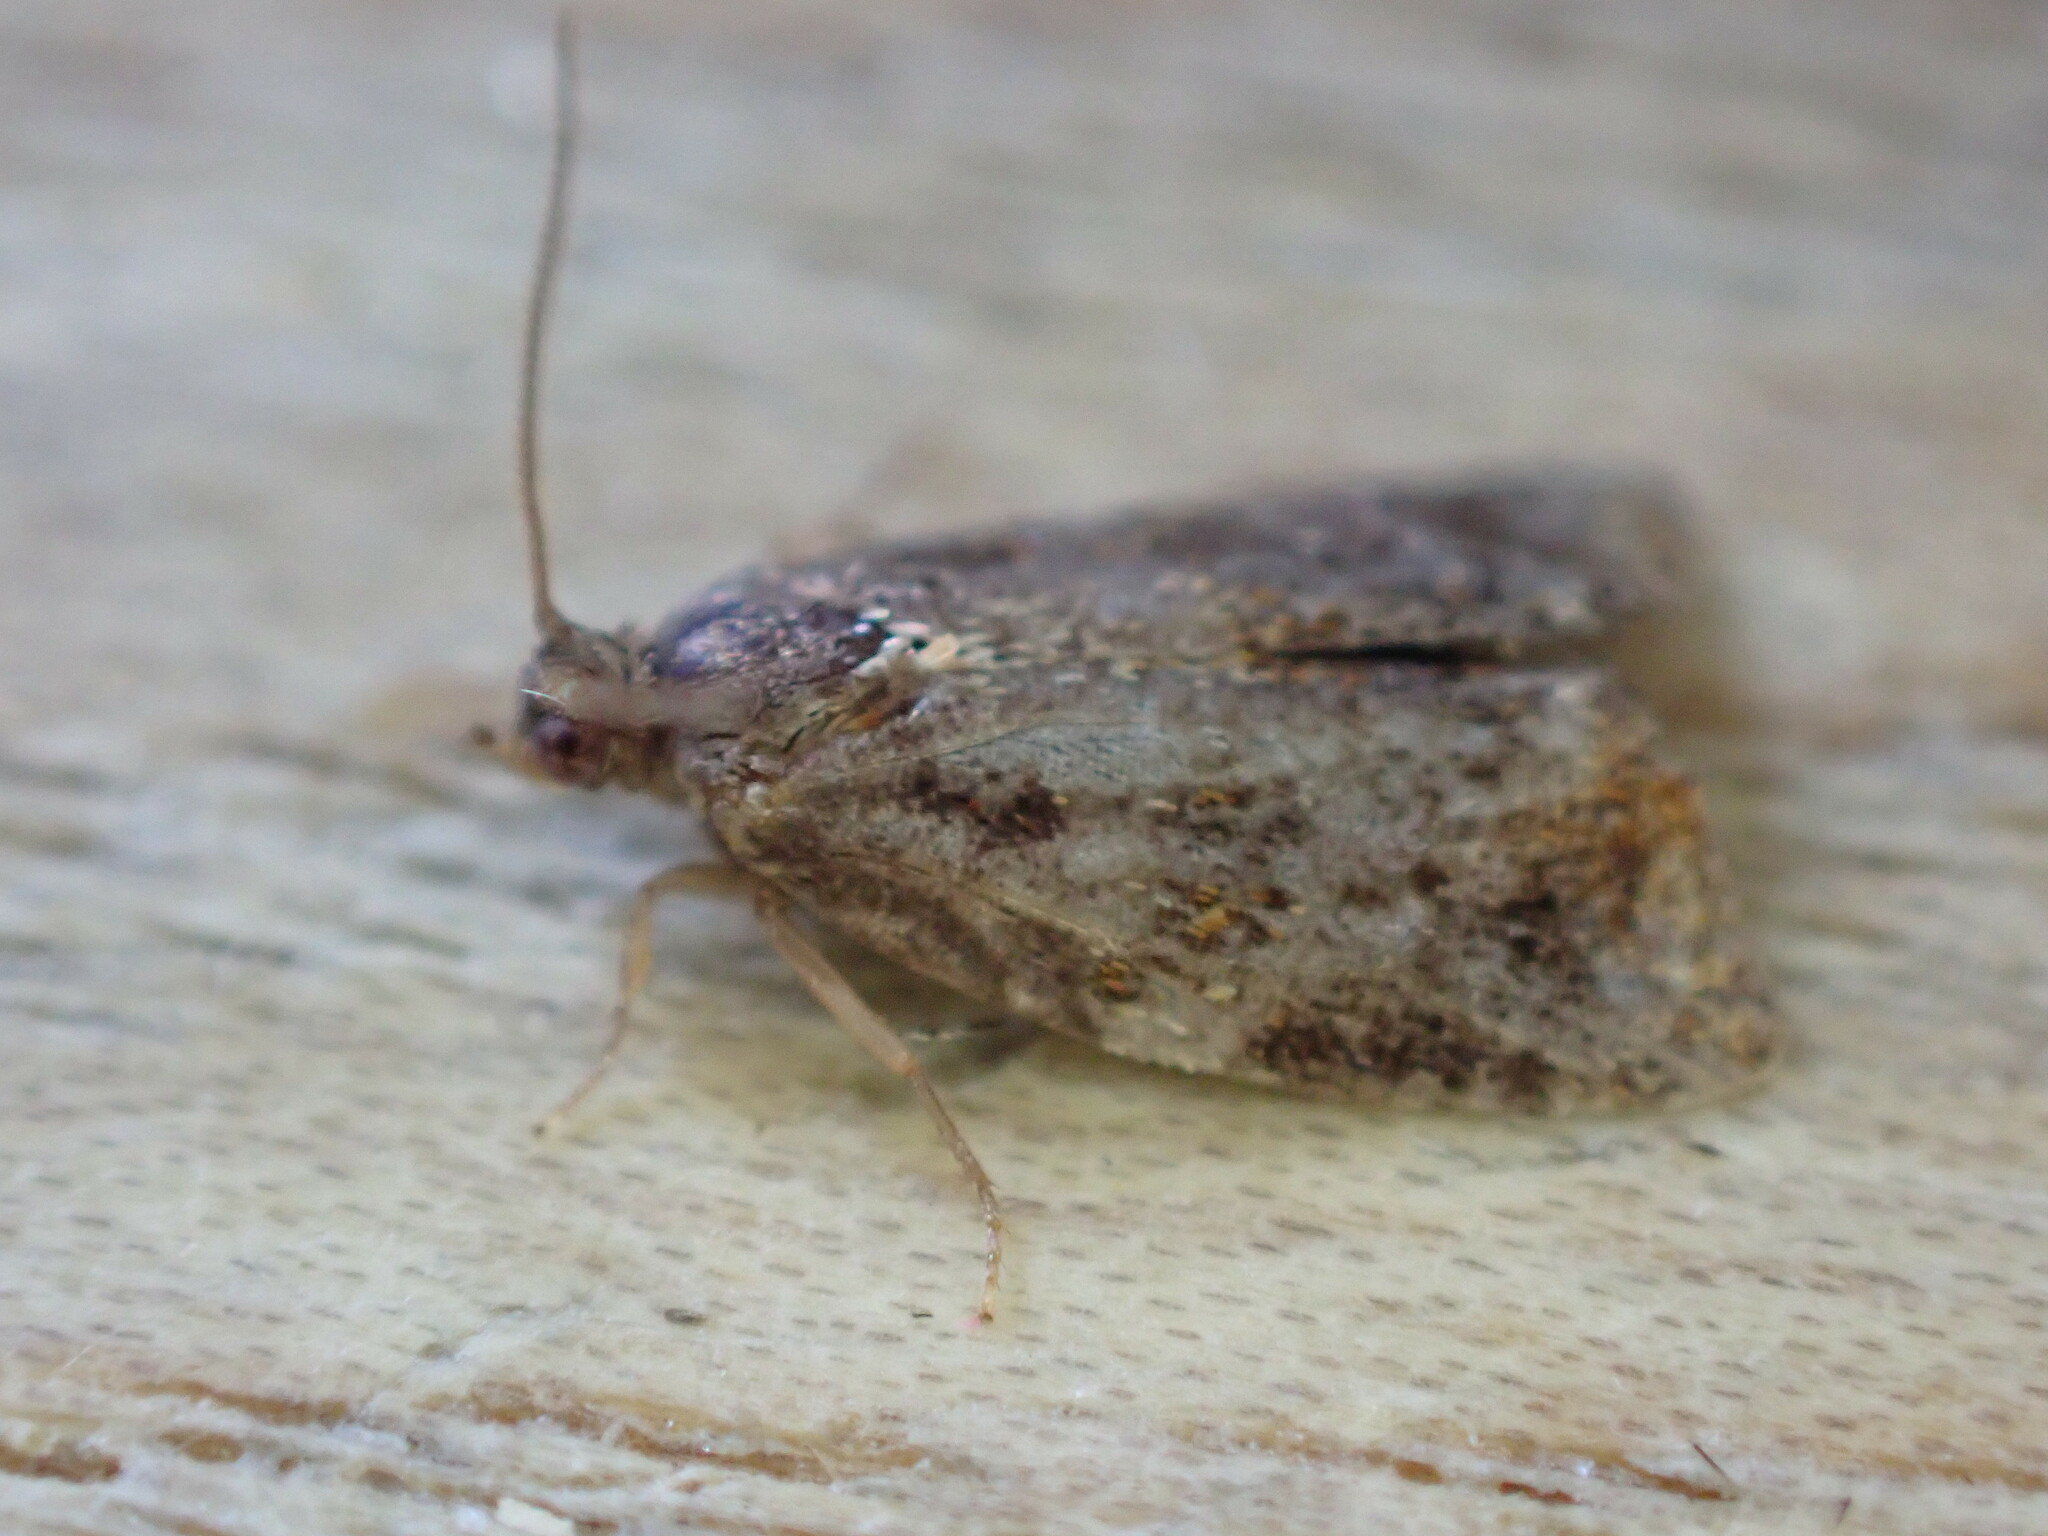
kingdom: Animalia
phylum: Arthropoda
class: Insecta
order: Lepidoptera
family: Tortricidae
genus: Ditula
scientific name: Ditula angustiorana
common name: Red-barred tortrix
